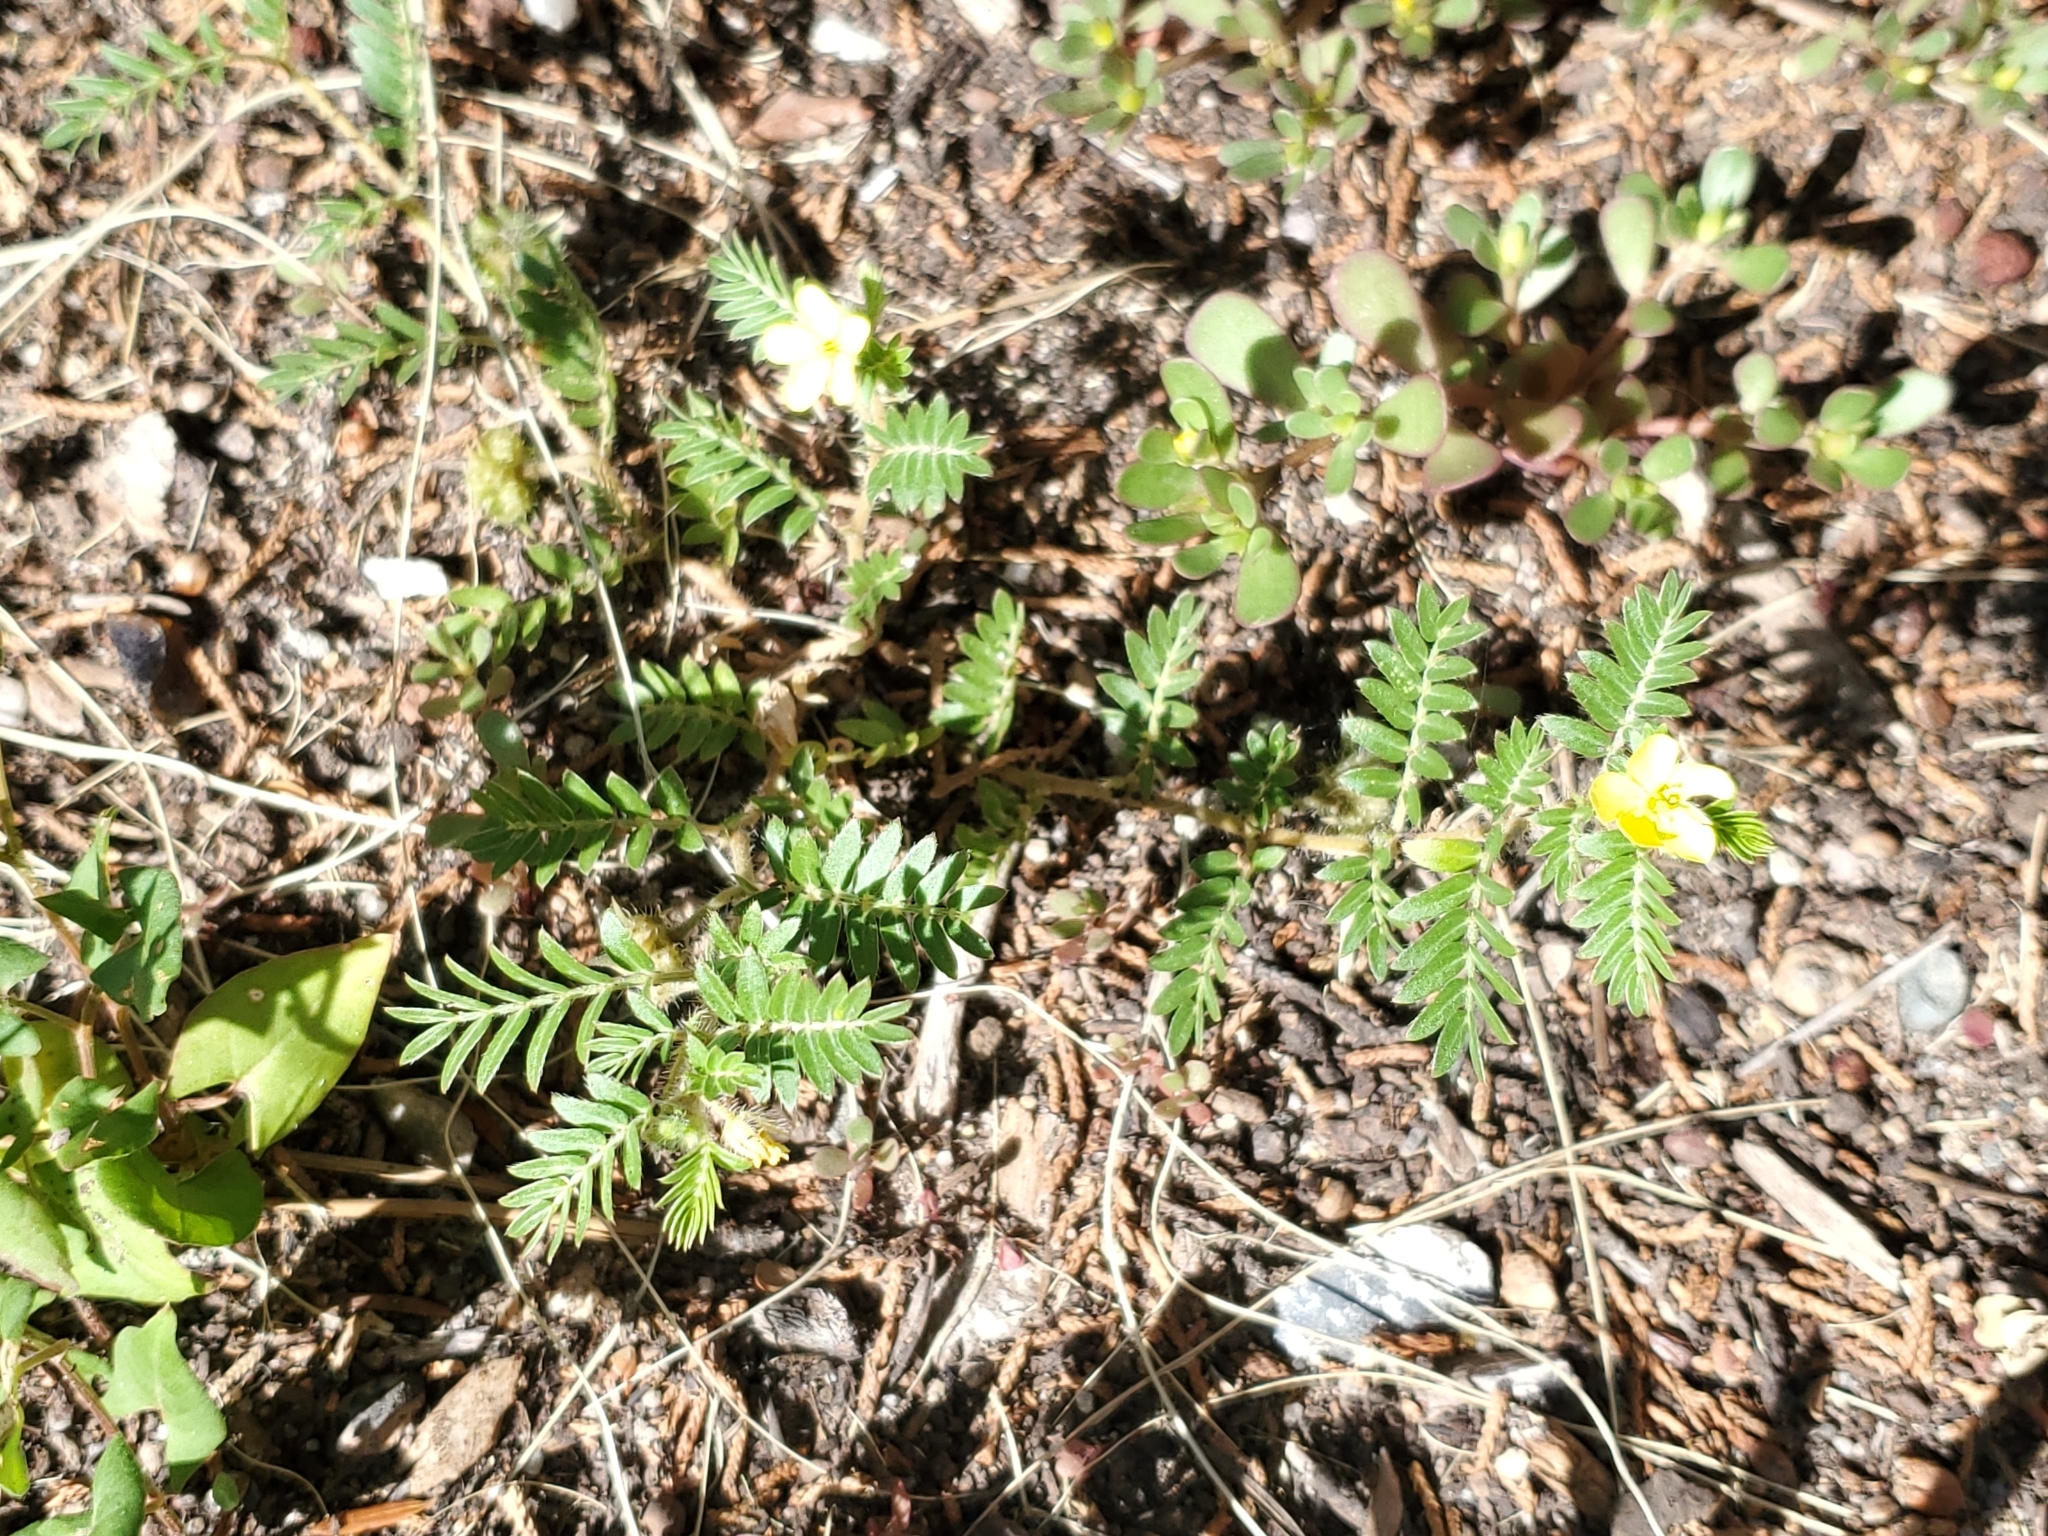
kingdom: Plantae
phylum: Tracheophyta
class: Magnoliopsida
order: Zygophyllales
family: Zygophyllaceae
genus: Tribulus
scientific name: Tribulus terrestris
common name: Puncturevine
